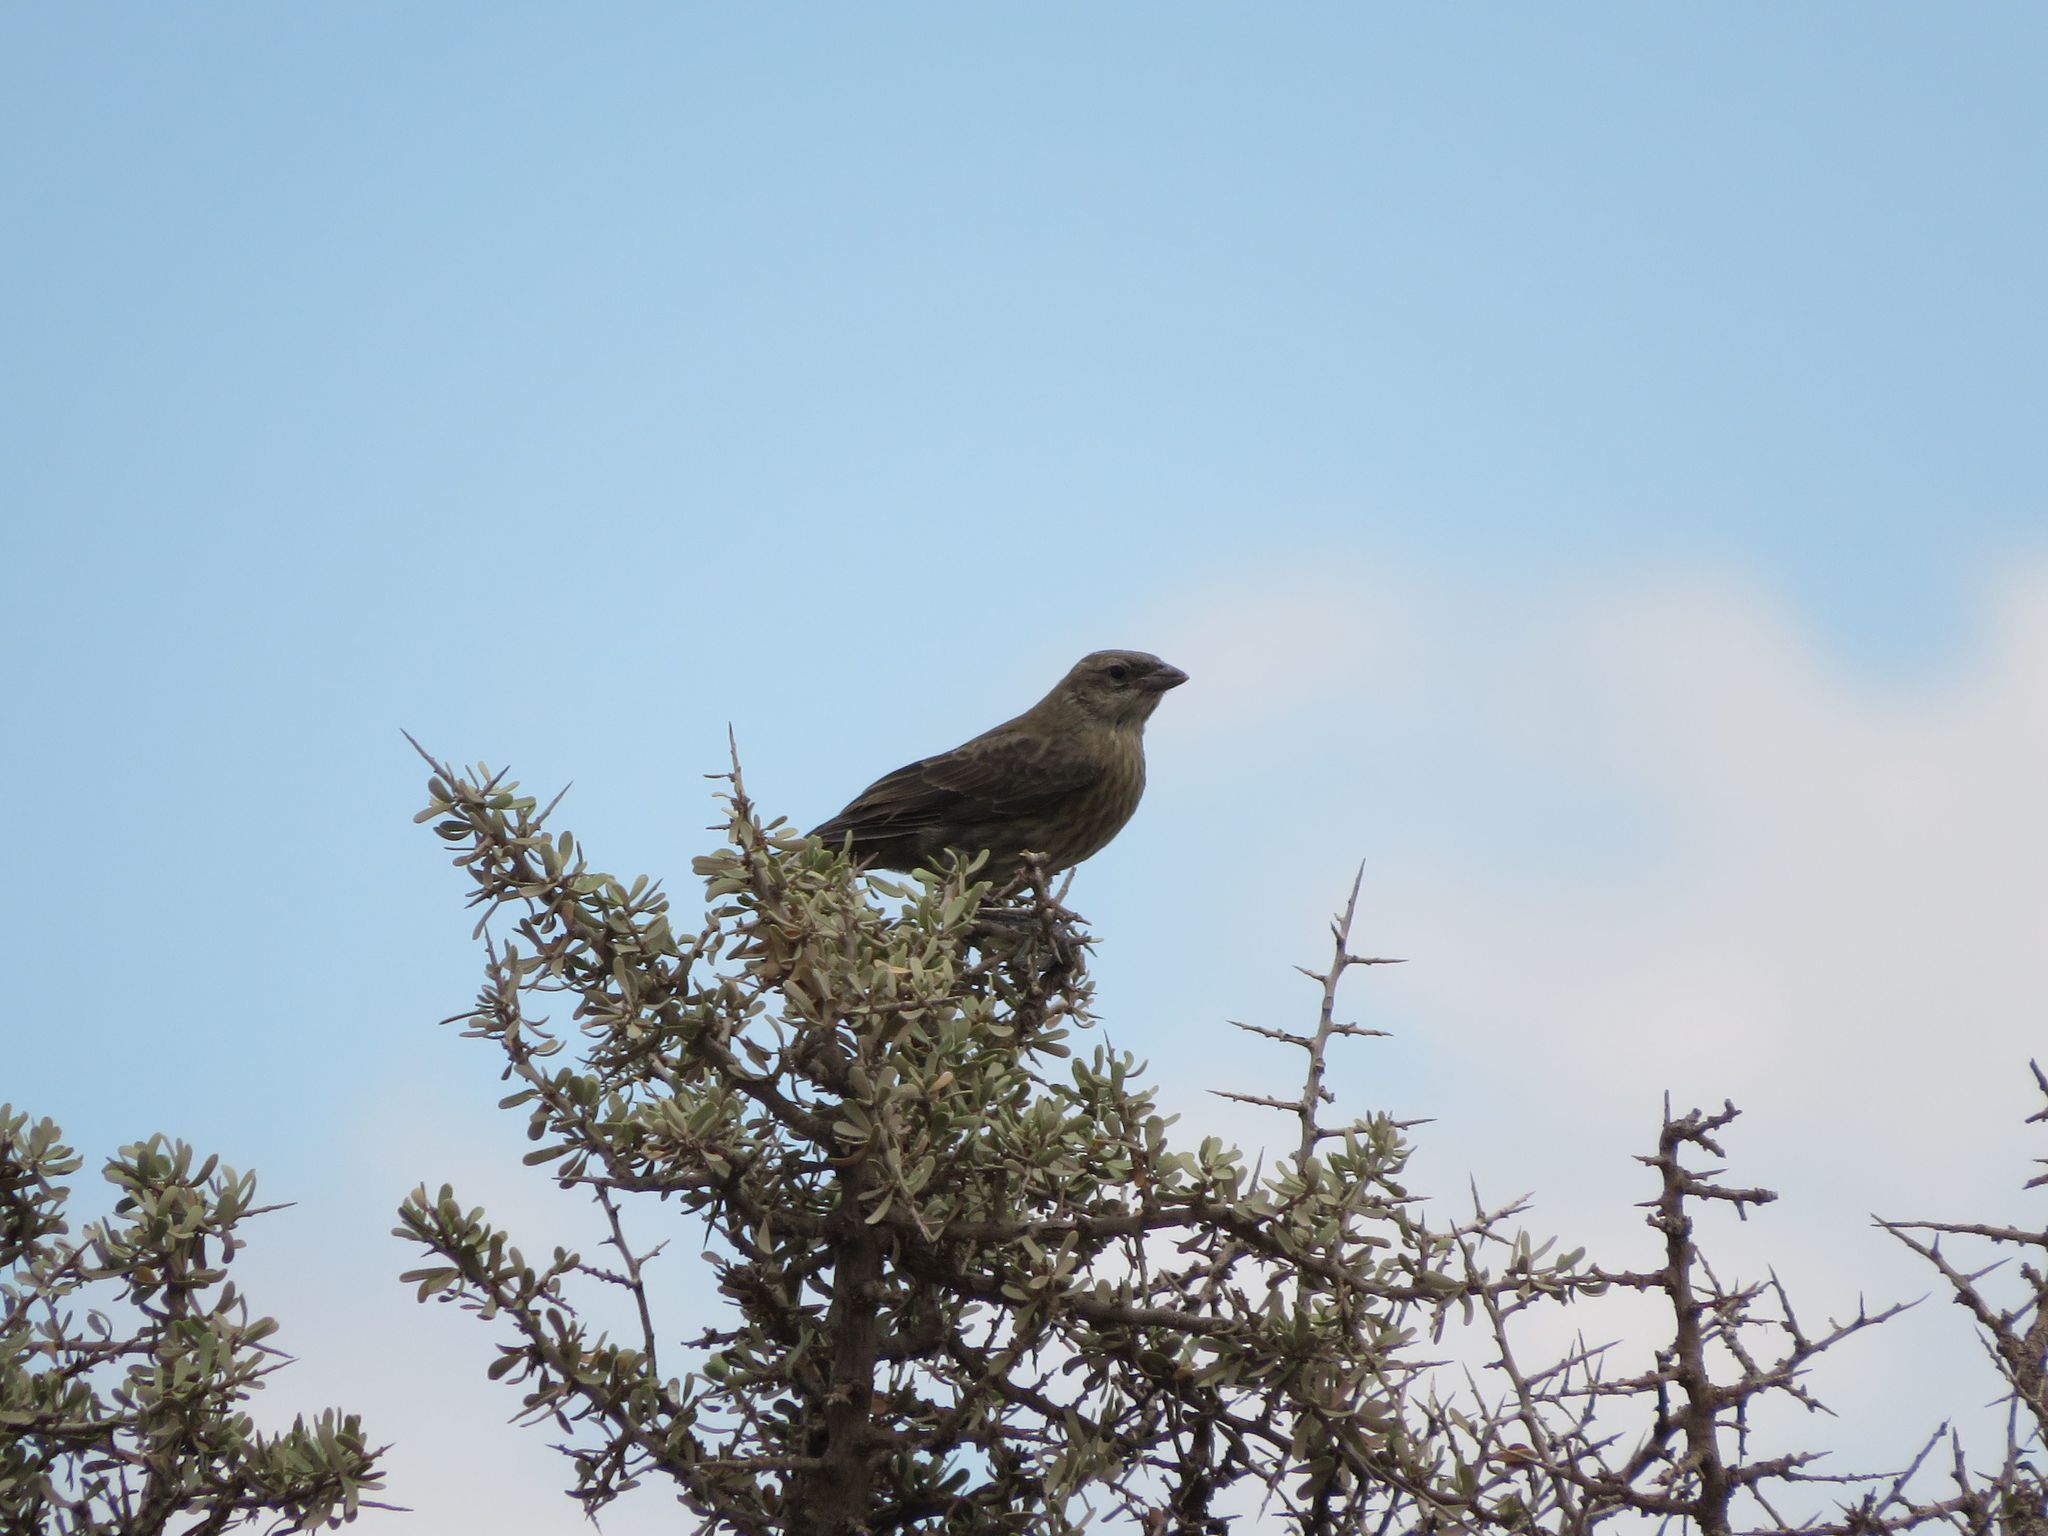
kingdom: Animalia
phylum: Chordata
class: Aves
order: Passeriformes
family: Icteridae
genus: Molothrus
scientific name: Molothrus bonariensis
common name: Shiny cowbird
